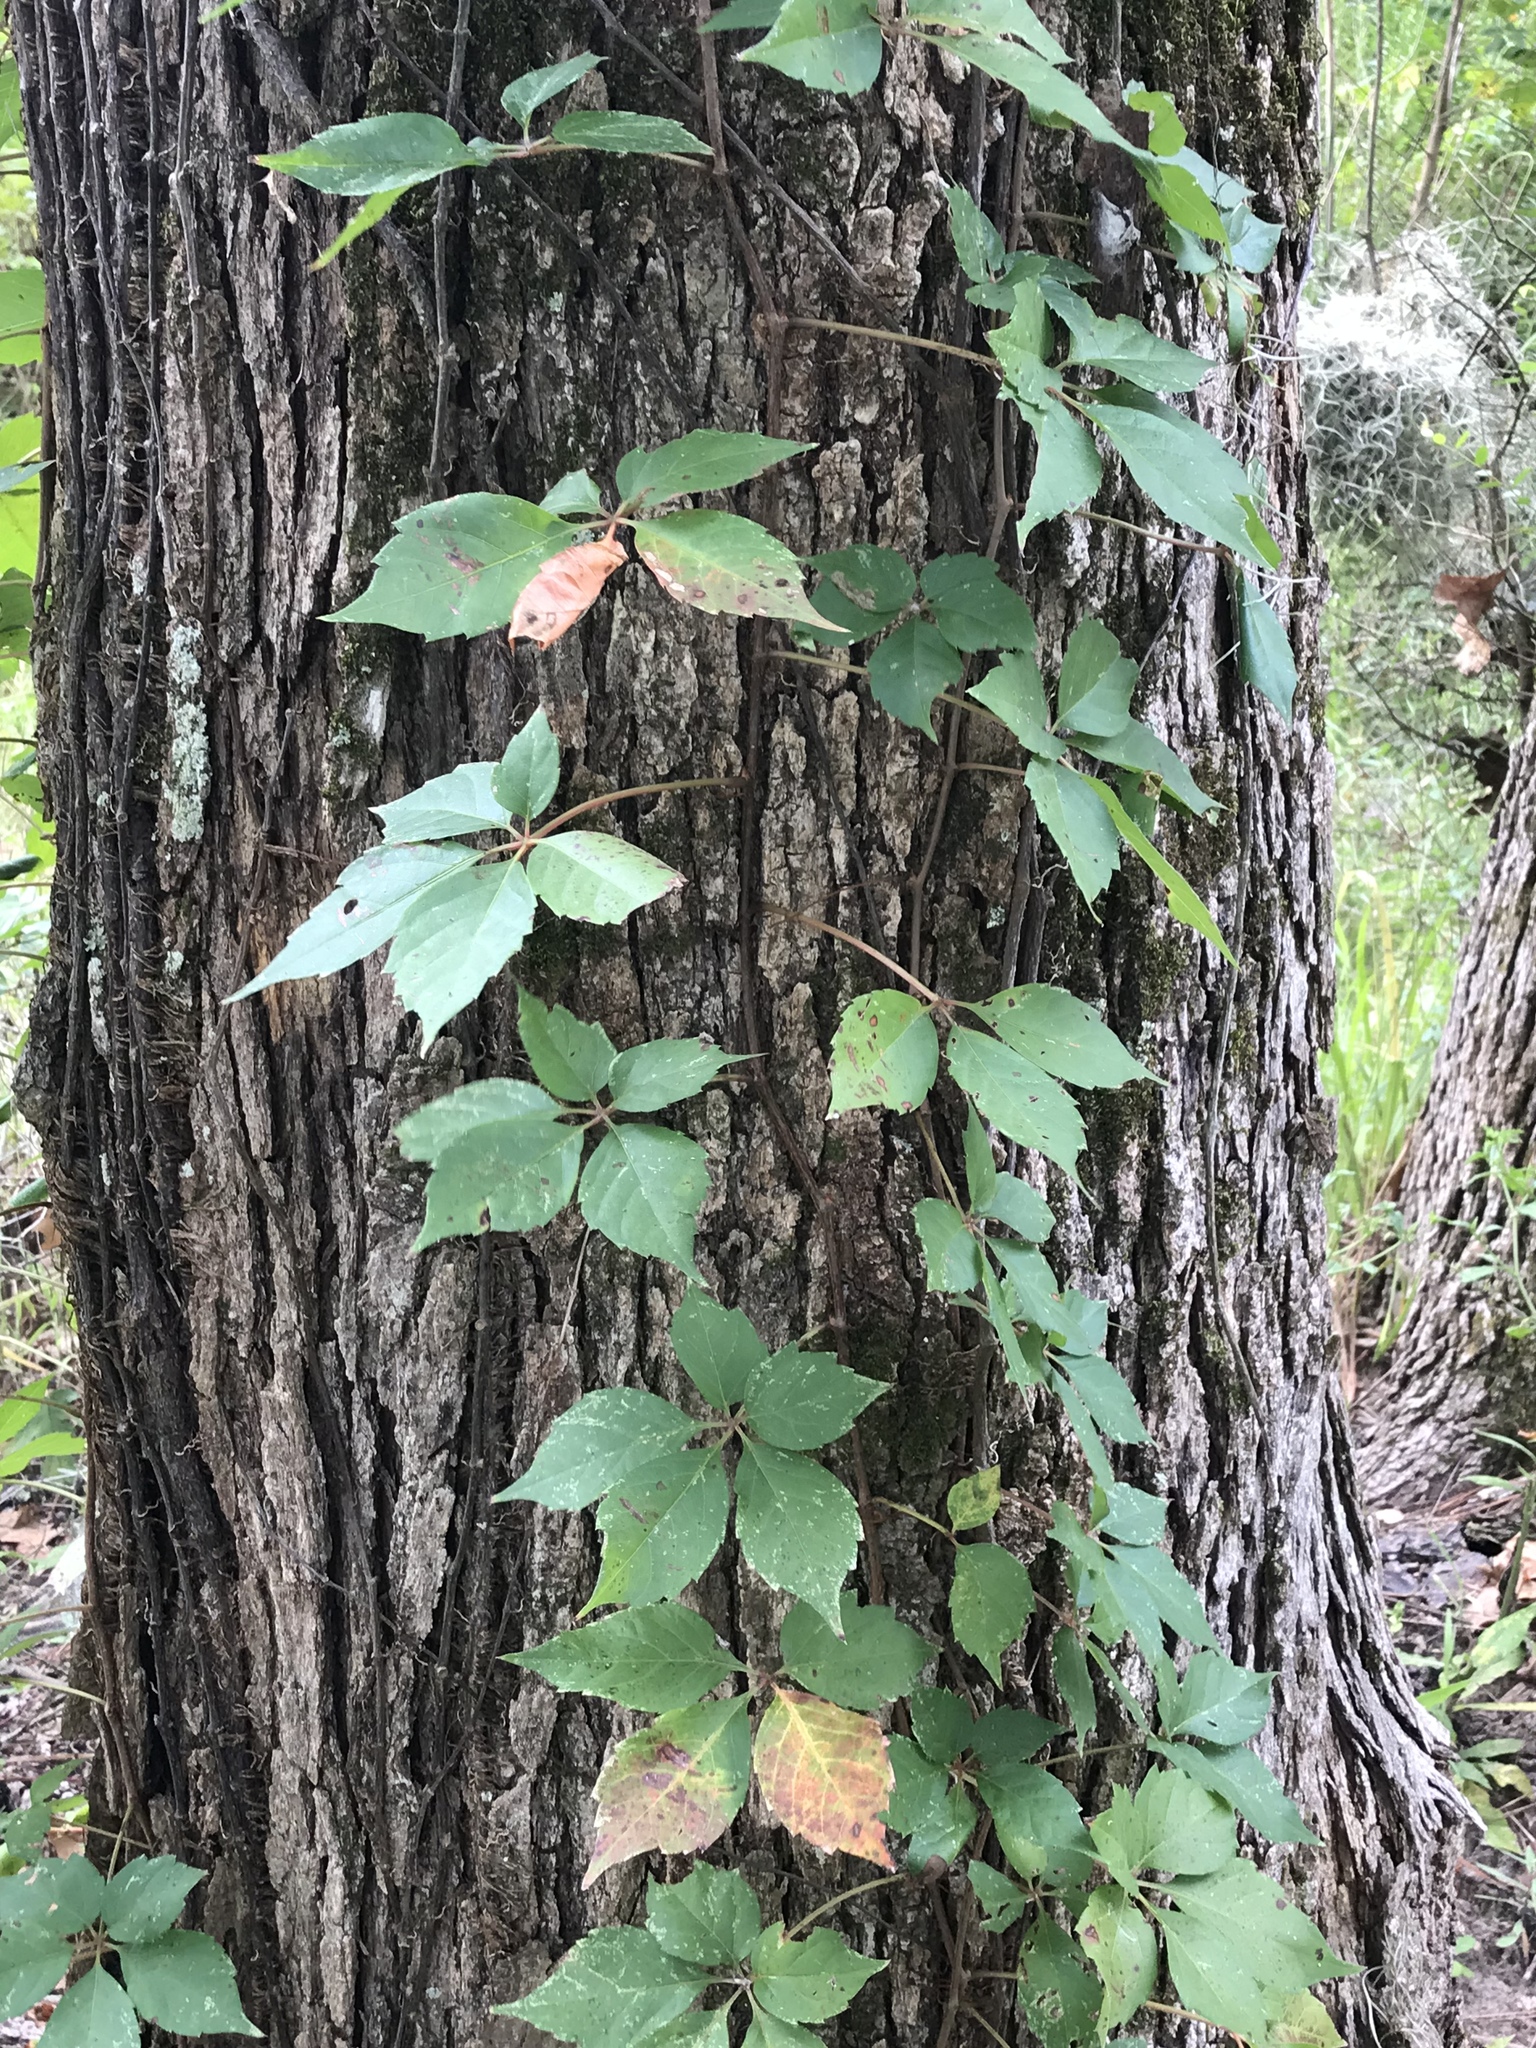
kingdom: Plantae
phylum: Tracheophyta
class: Magnoliopsida
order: Vitales
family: Vitaceae
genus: Parthenocissus
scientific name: Parthenocissus quinquefolia
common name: Virginia-creeper
